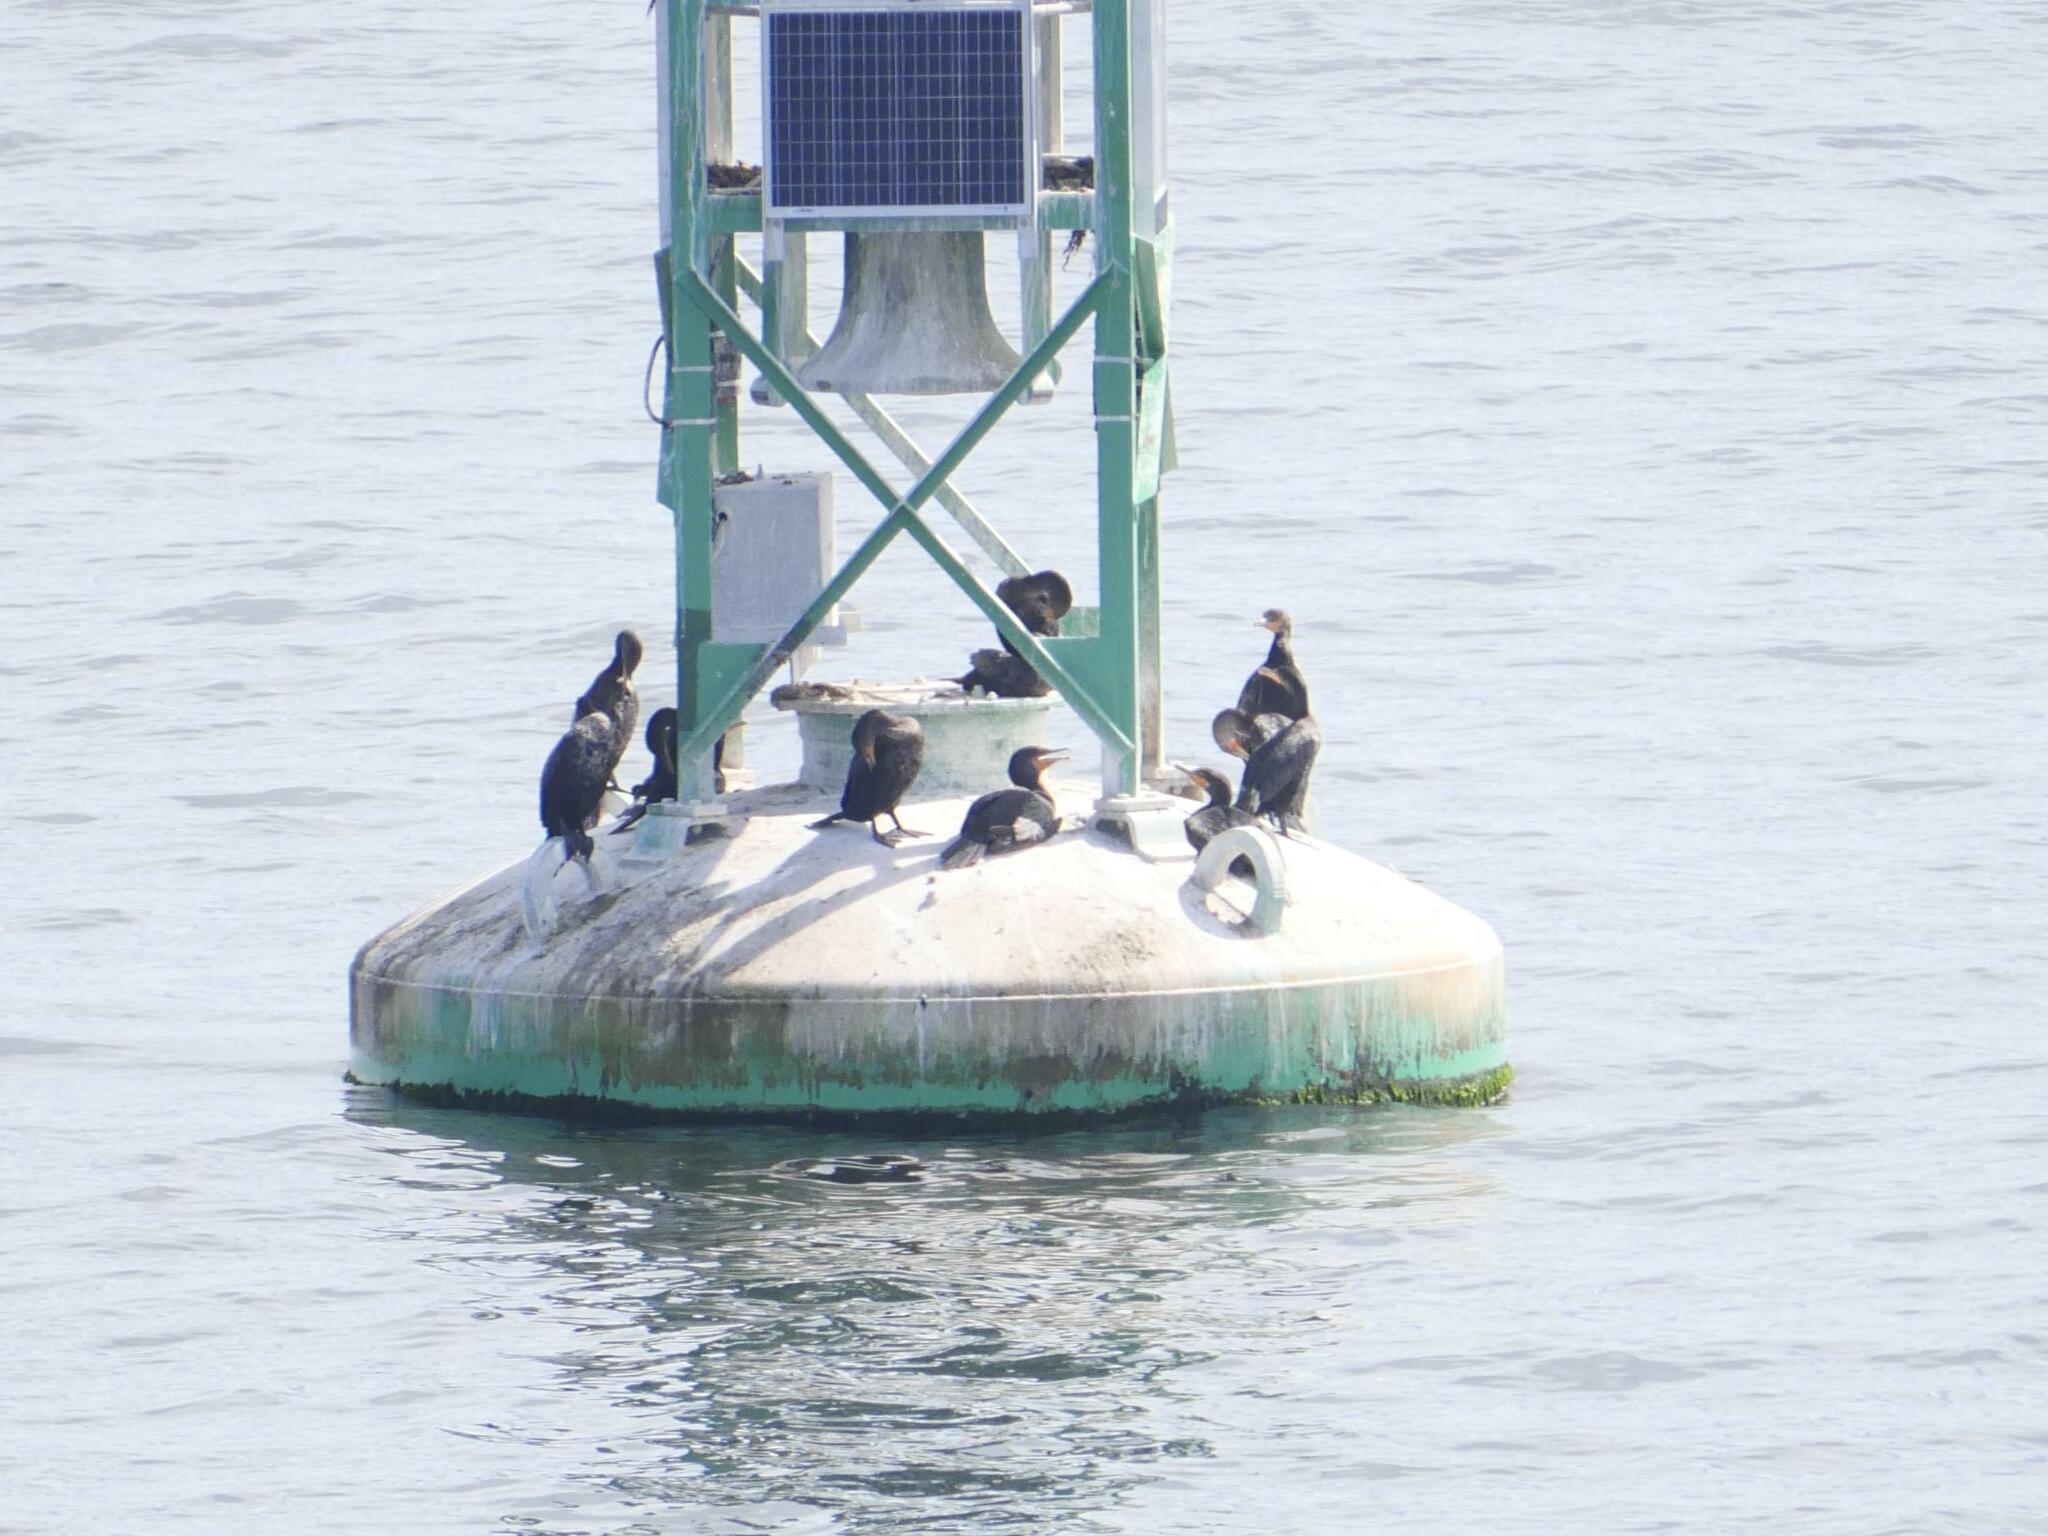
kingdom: Animalia
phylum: Chordata
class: Aves
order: Suliformes
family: Phalacrocoracidae
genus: Phalacrocorax
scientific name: Phalacrocorax auritus
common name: Double-crested cormorant
